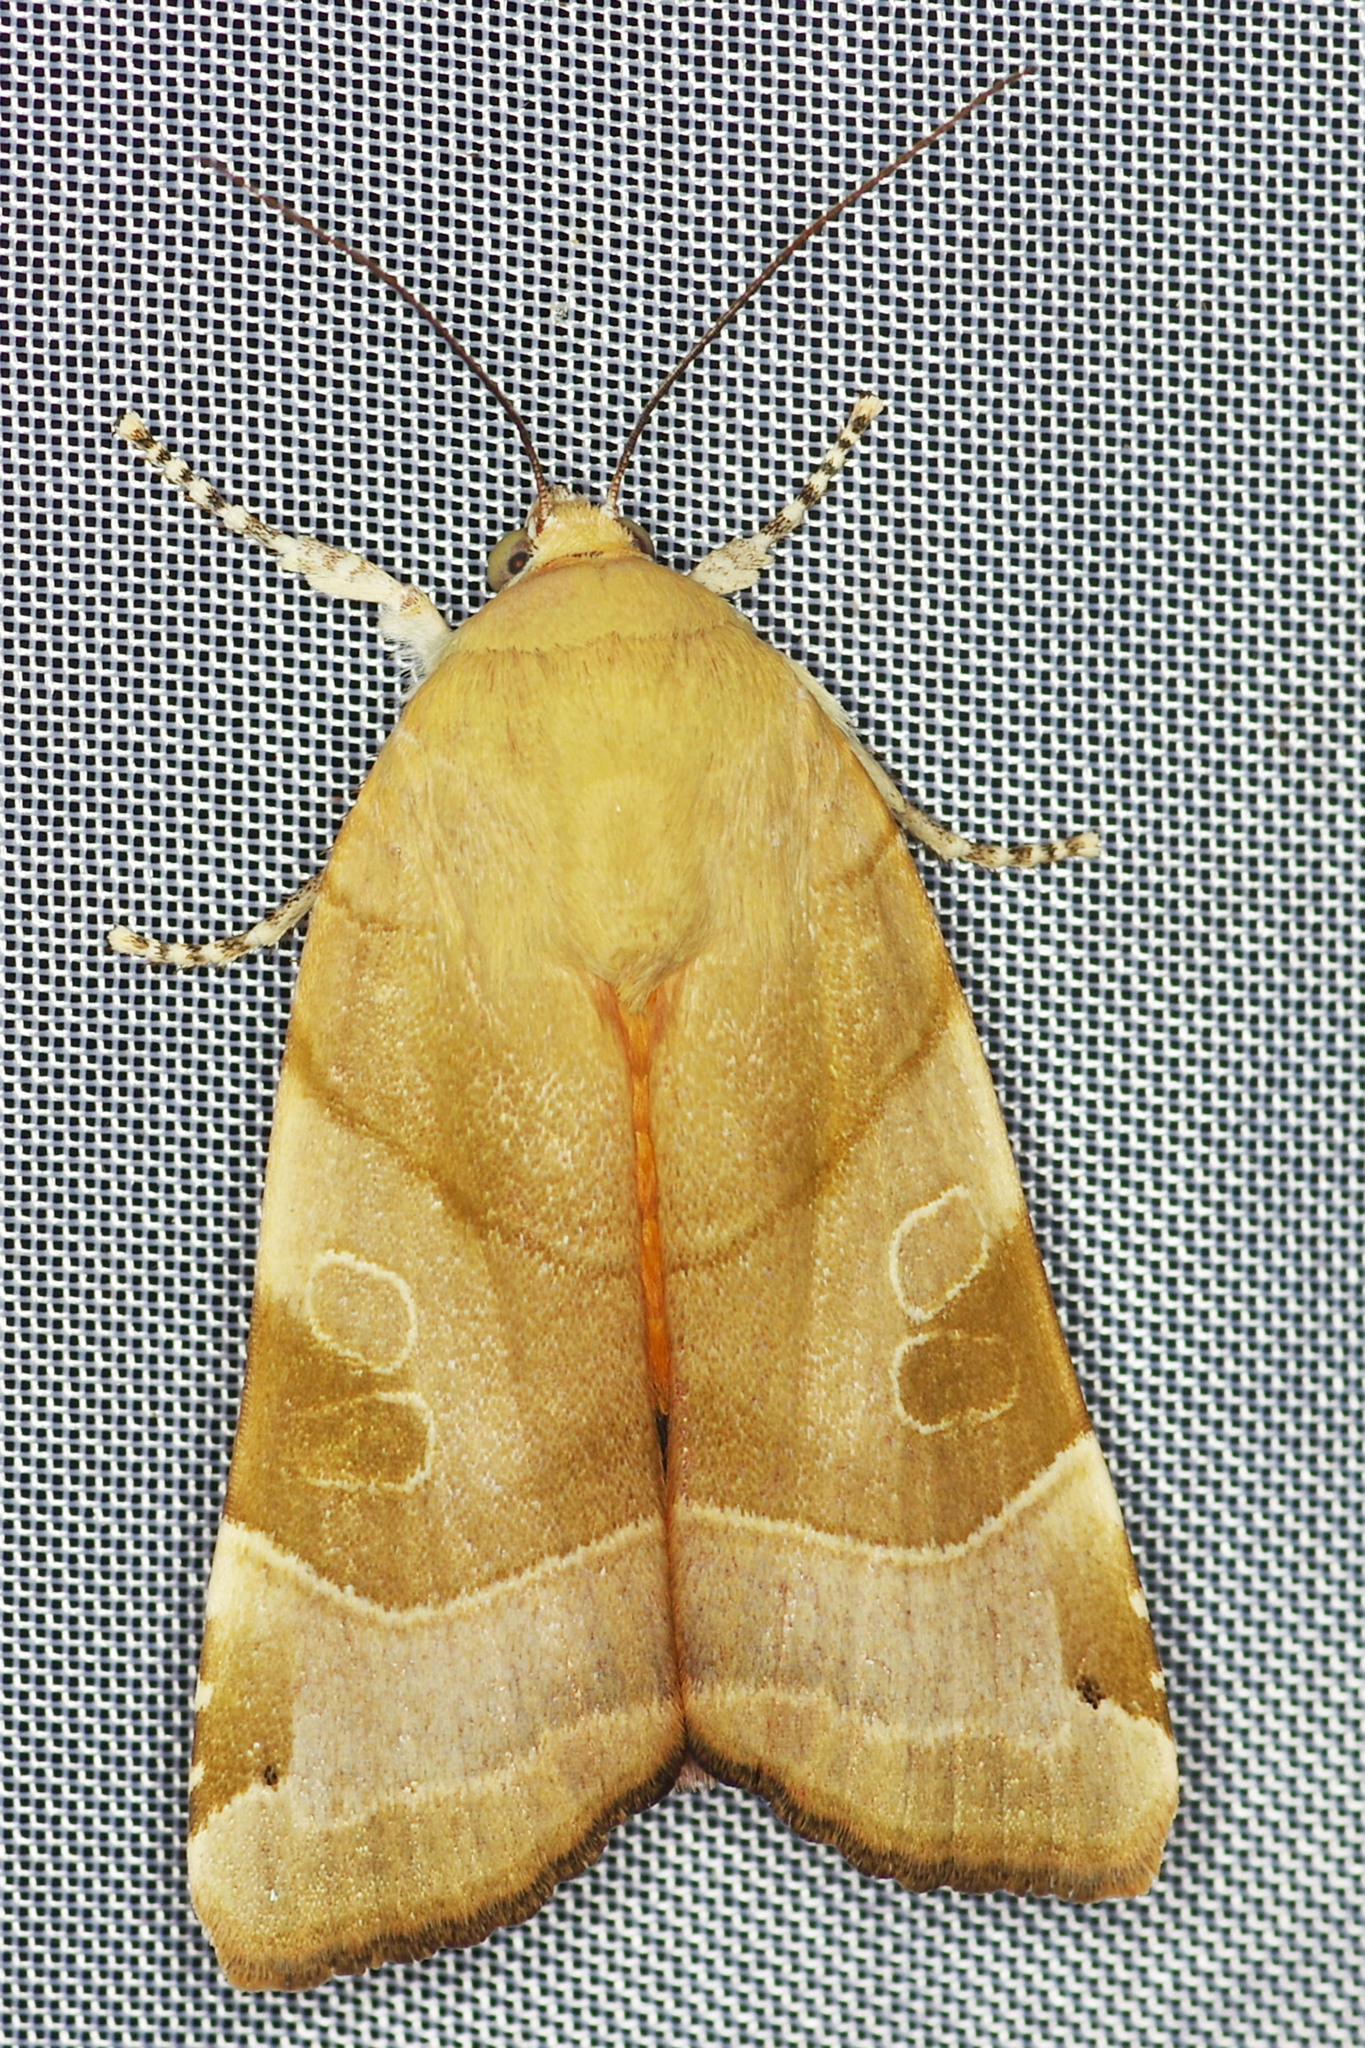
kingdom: Animalia
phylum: Arthropoda
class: Insecta
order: Lepidoptera
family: Noctuidae
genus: Noctua
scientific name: Noctua fimbriata
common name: Broad-bordered yellow underwing
